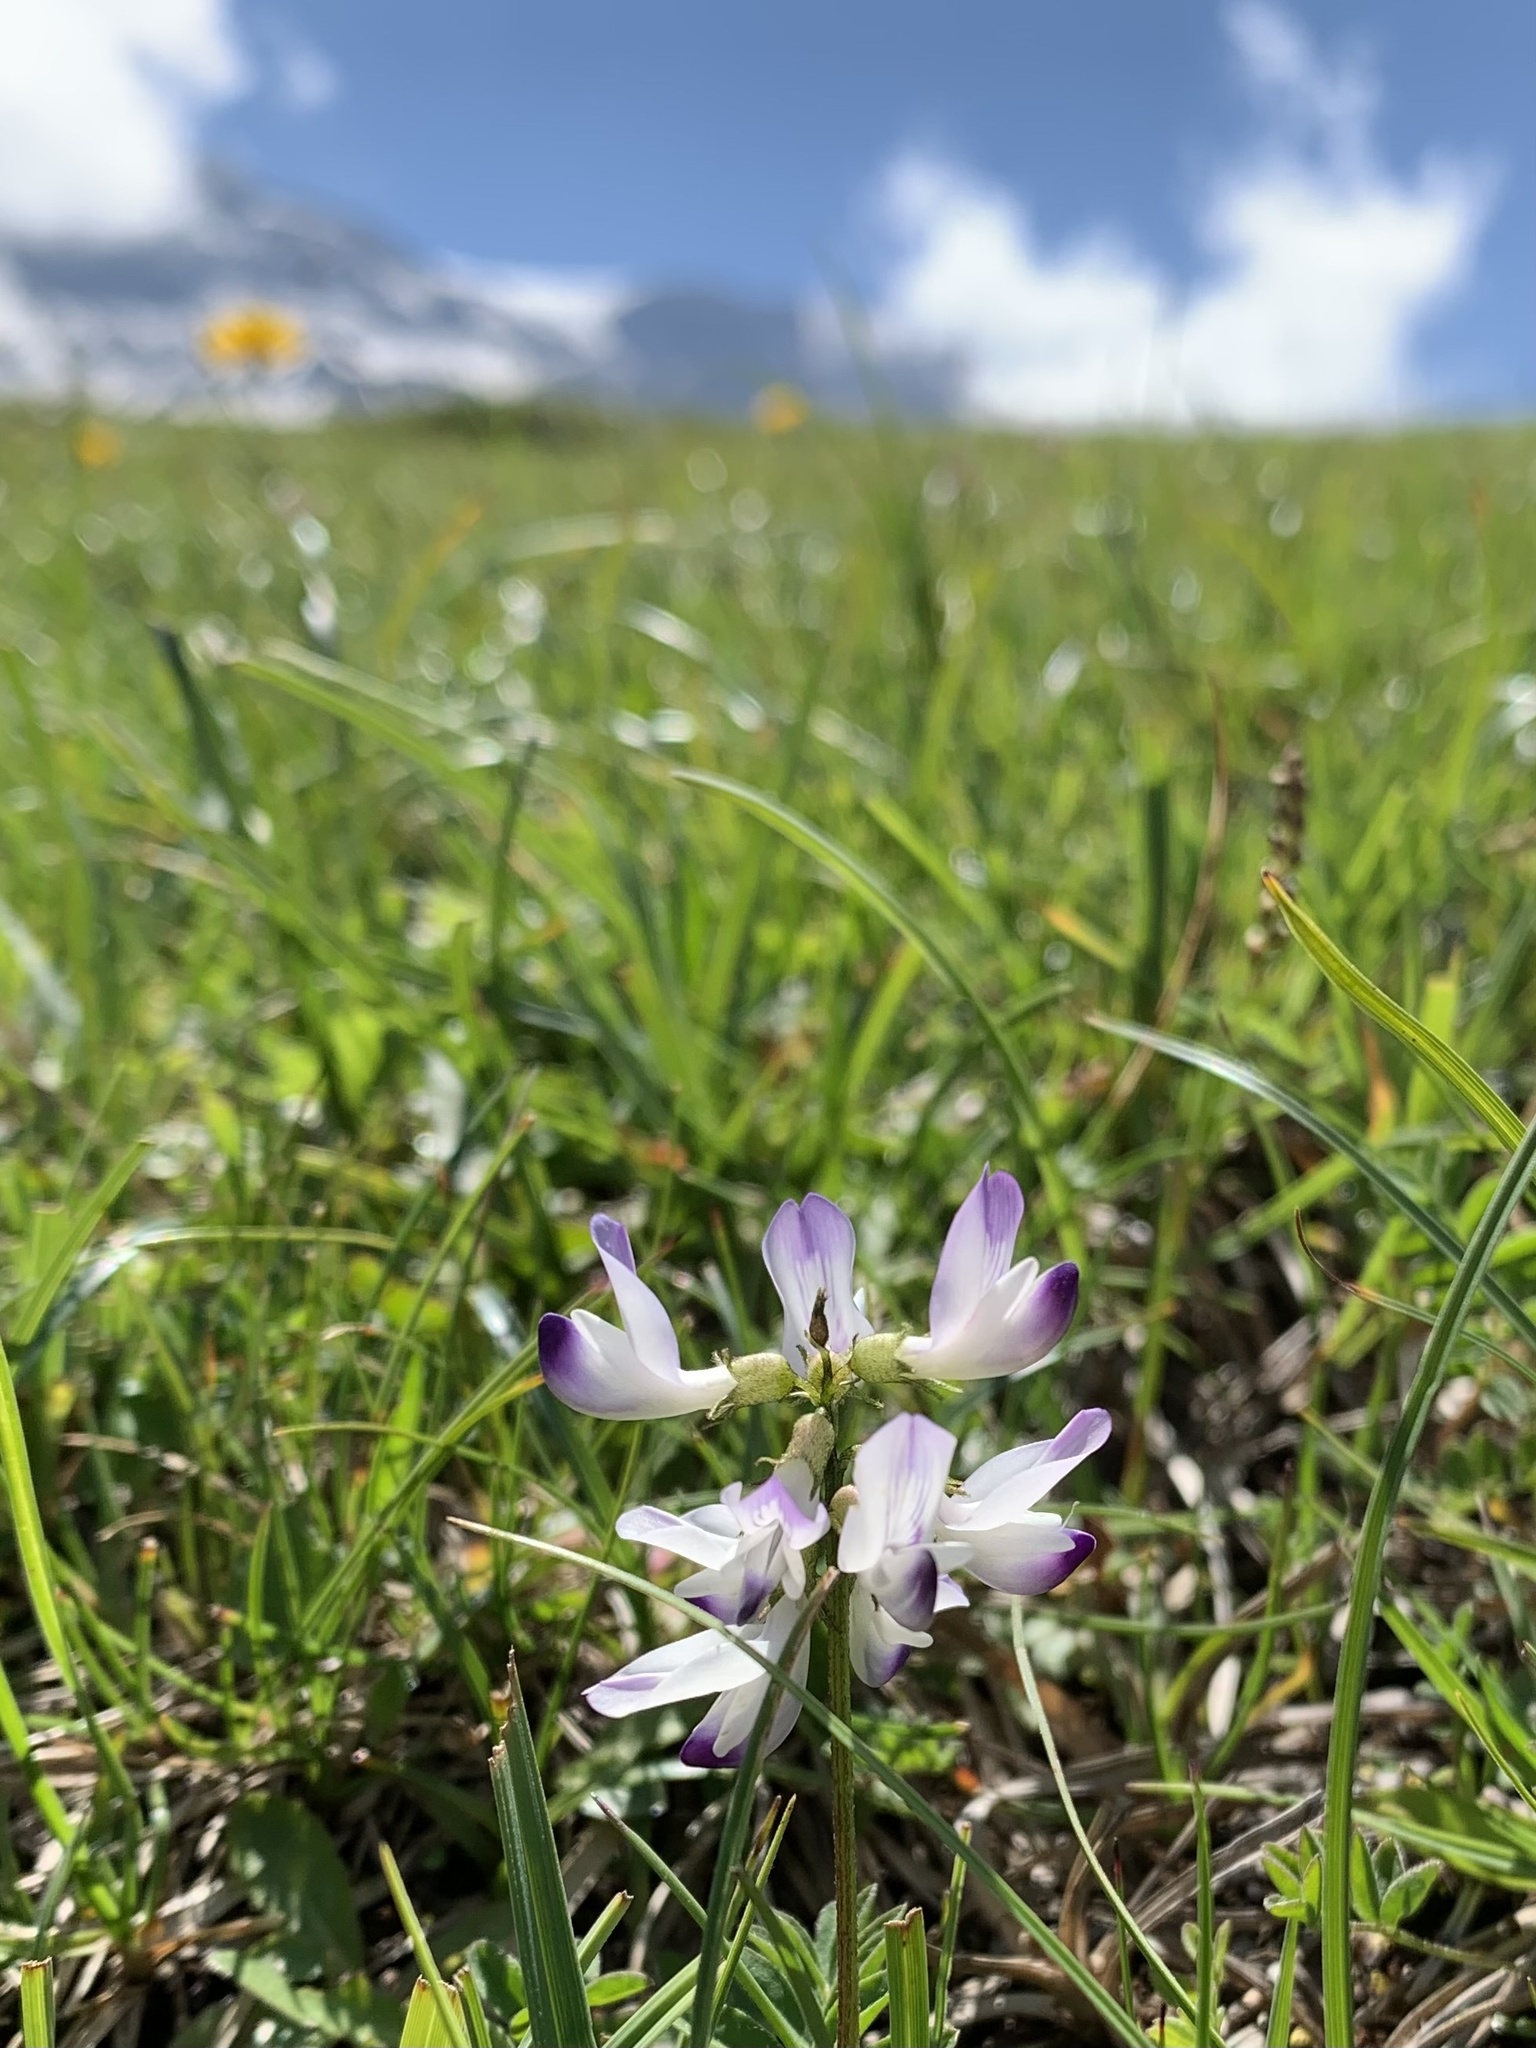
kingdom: Plantae
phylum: Tracheophyta
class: Magnoliopsida
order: Fabales
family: Fabaceae
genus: Astragalus
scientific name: Astragalus alpinus
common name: Alpine milk-vetch
